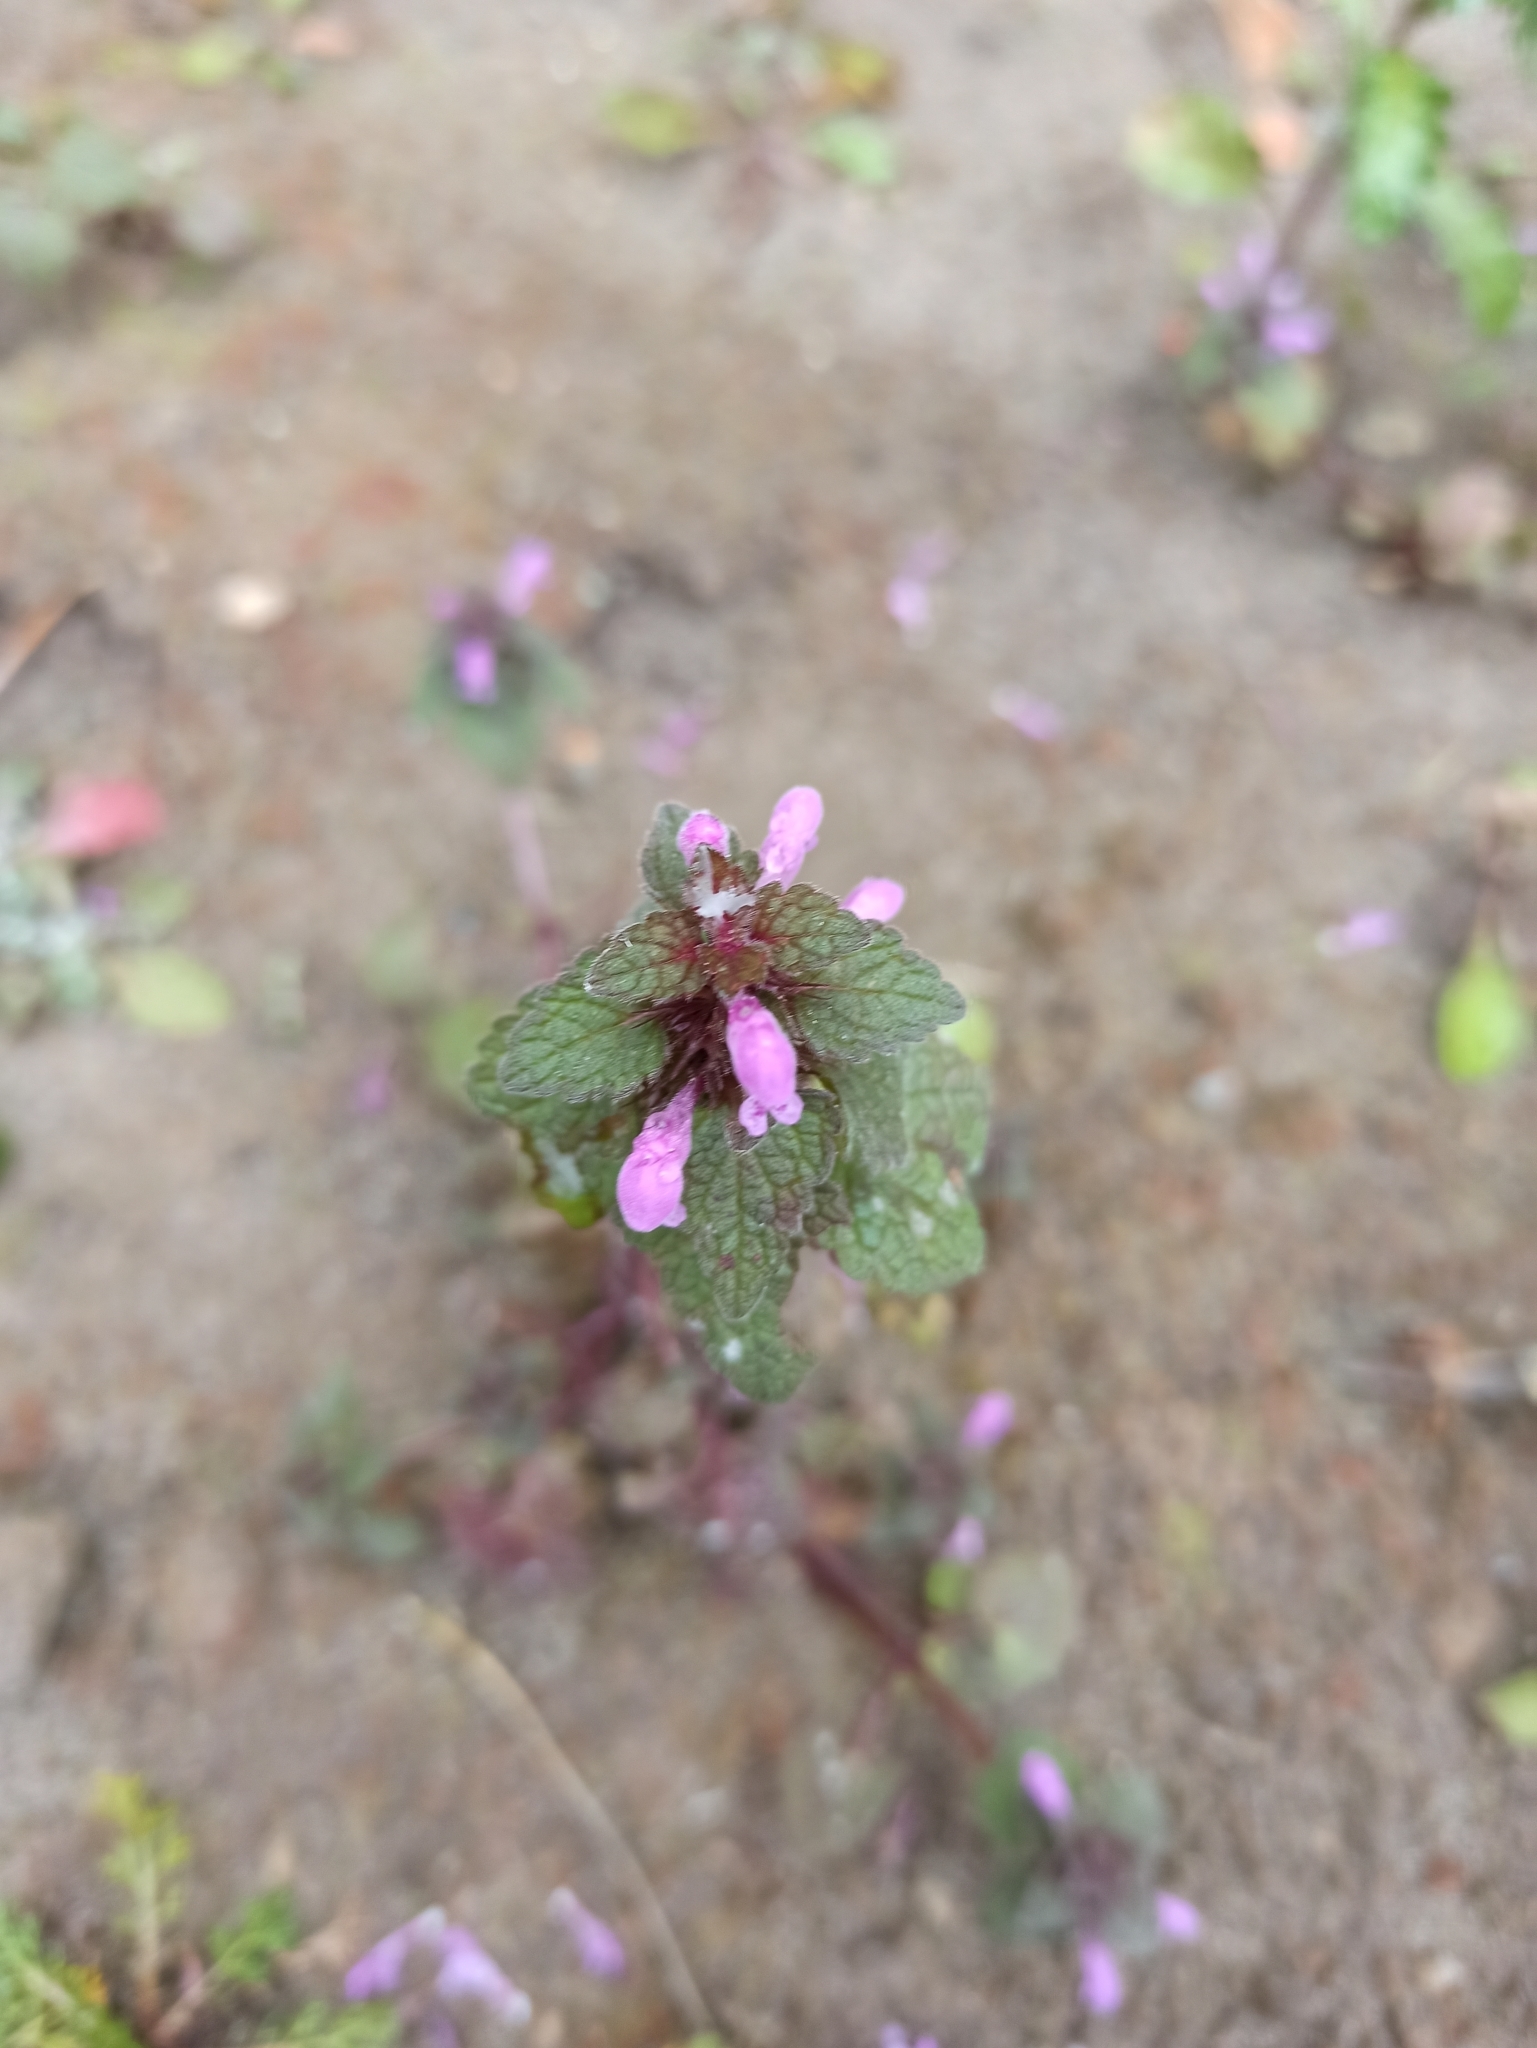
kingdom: Plantae
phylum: Tracheophyta
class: Magnoliopsida
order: Lamiales
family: Lamiaceae
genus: Lamium
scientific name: Lamium purpureum
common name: Red dead-nettle
